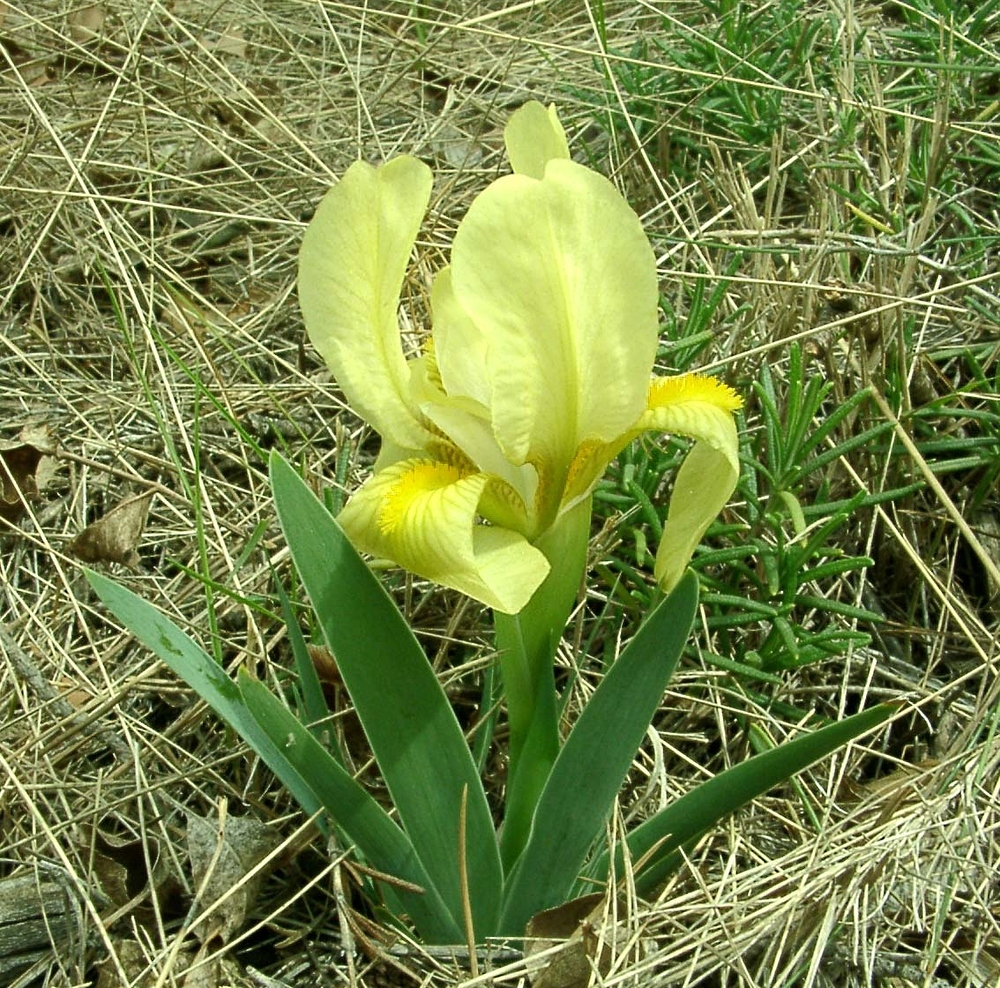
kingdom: Plantae
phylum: Tracheophyta
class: Liliopsida
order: Asparagales
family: Iridaceae
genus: Iris
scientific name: Iris lutescens
